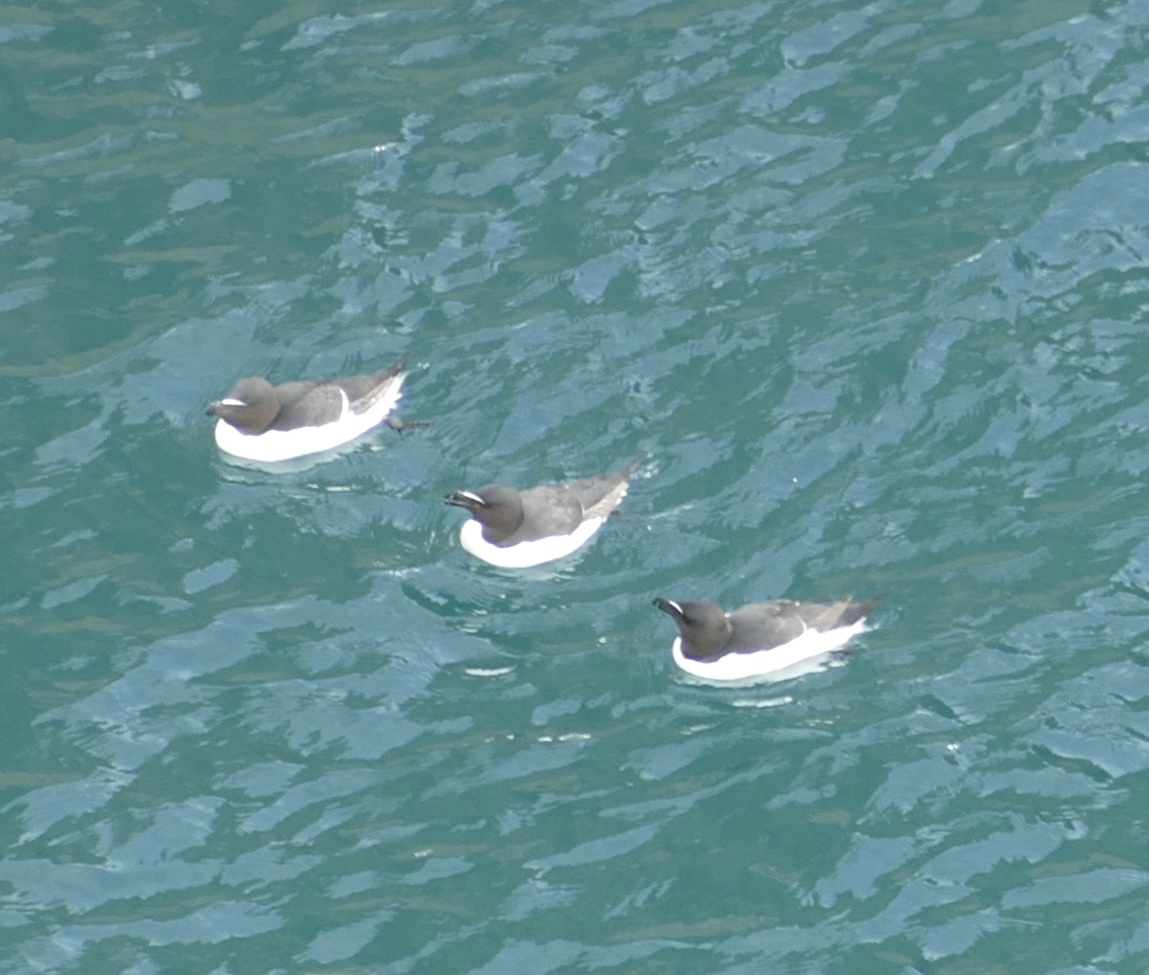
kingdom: Animalia
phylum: Chordata
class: Aves
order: Charadriiformes
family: Alcidae
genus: Alca
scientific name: Alca torda
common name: Razorbill
